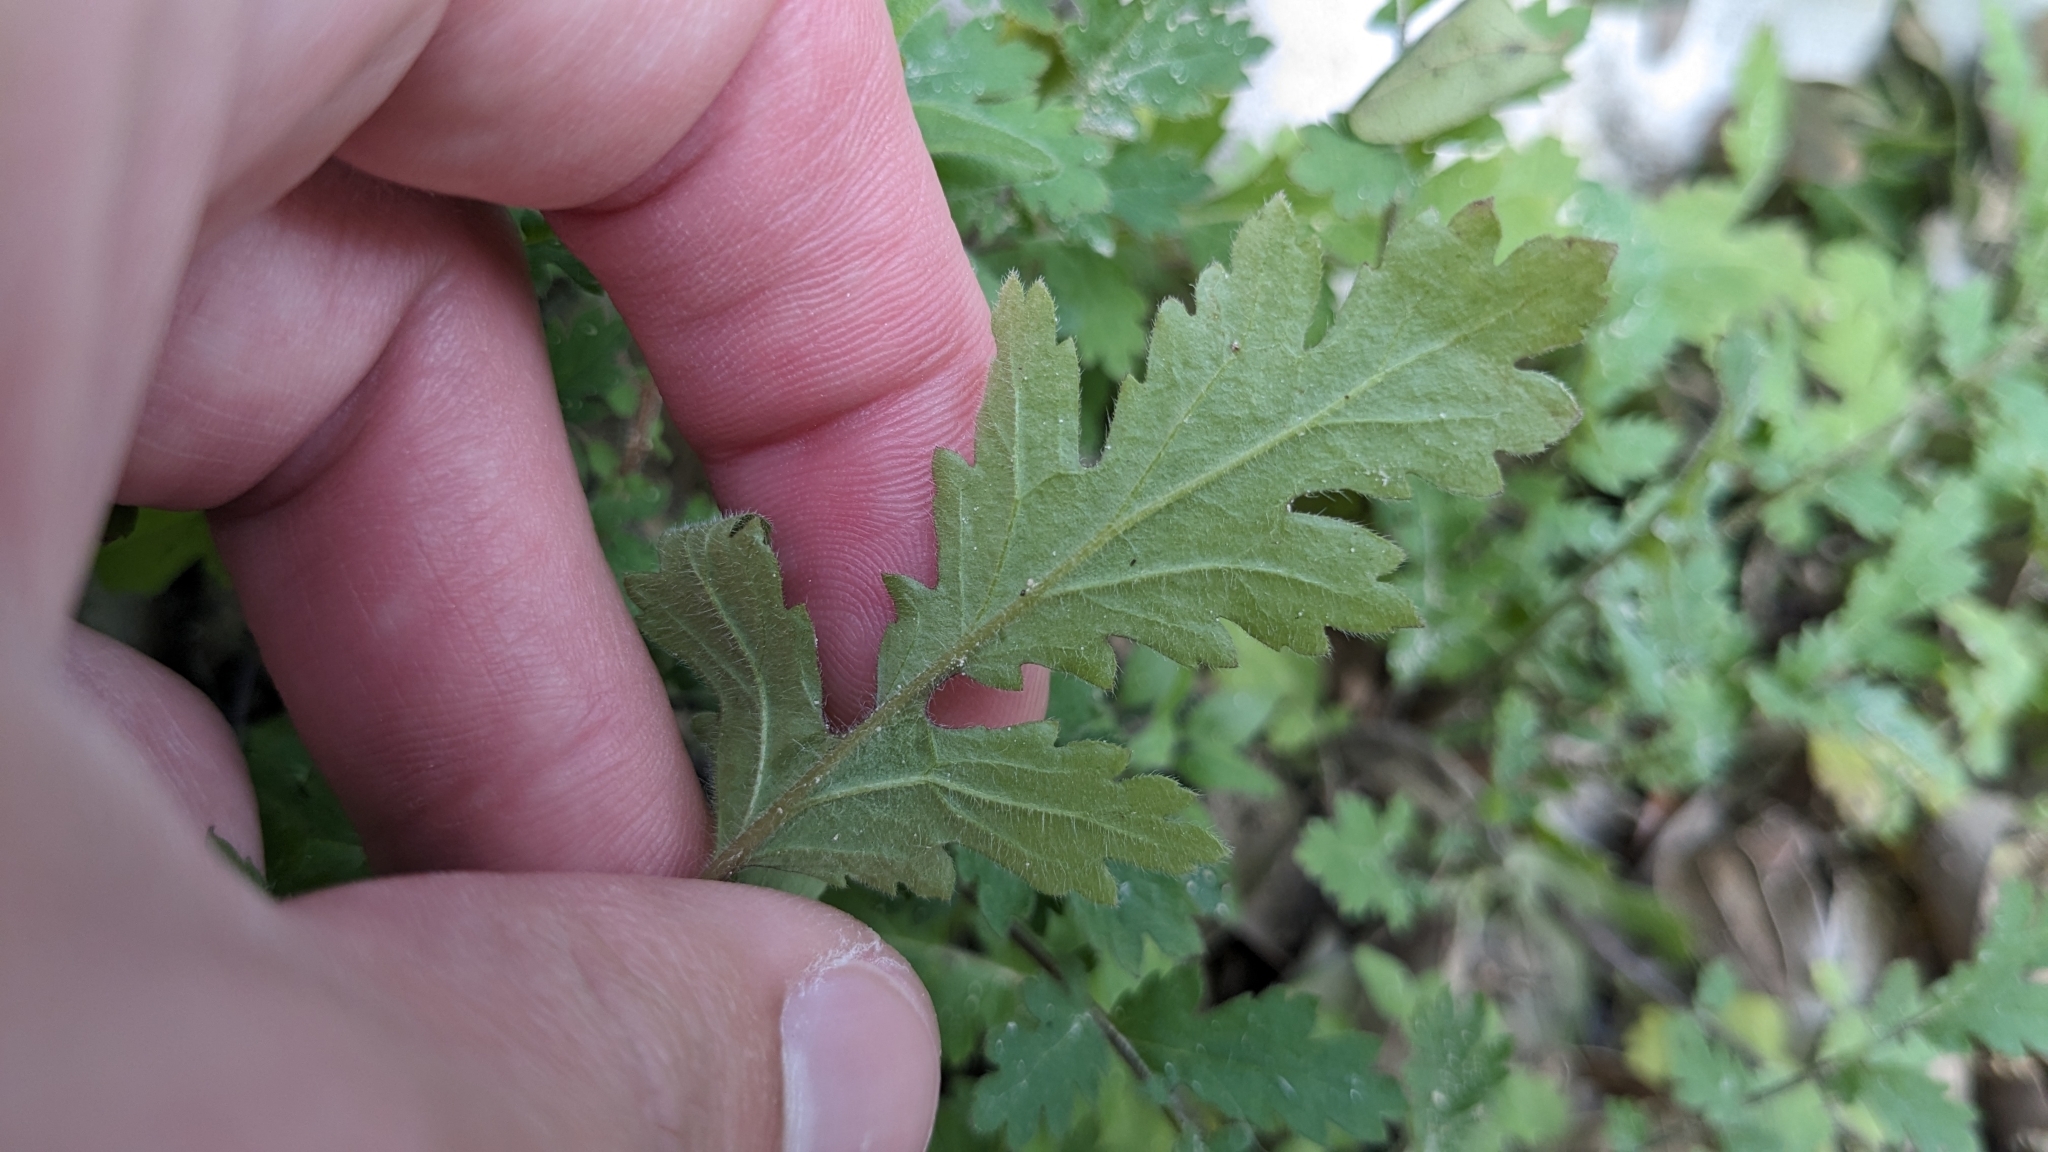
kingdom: Plantae
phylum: Tracheophyta
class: Magnoliopsida
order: Boraginales
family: Hydrophyllaceae
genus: Phacelia
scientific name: Phacelia congesta
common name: Blue curls
